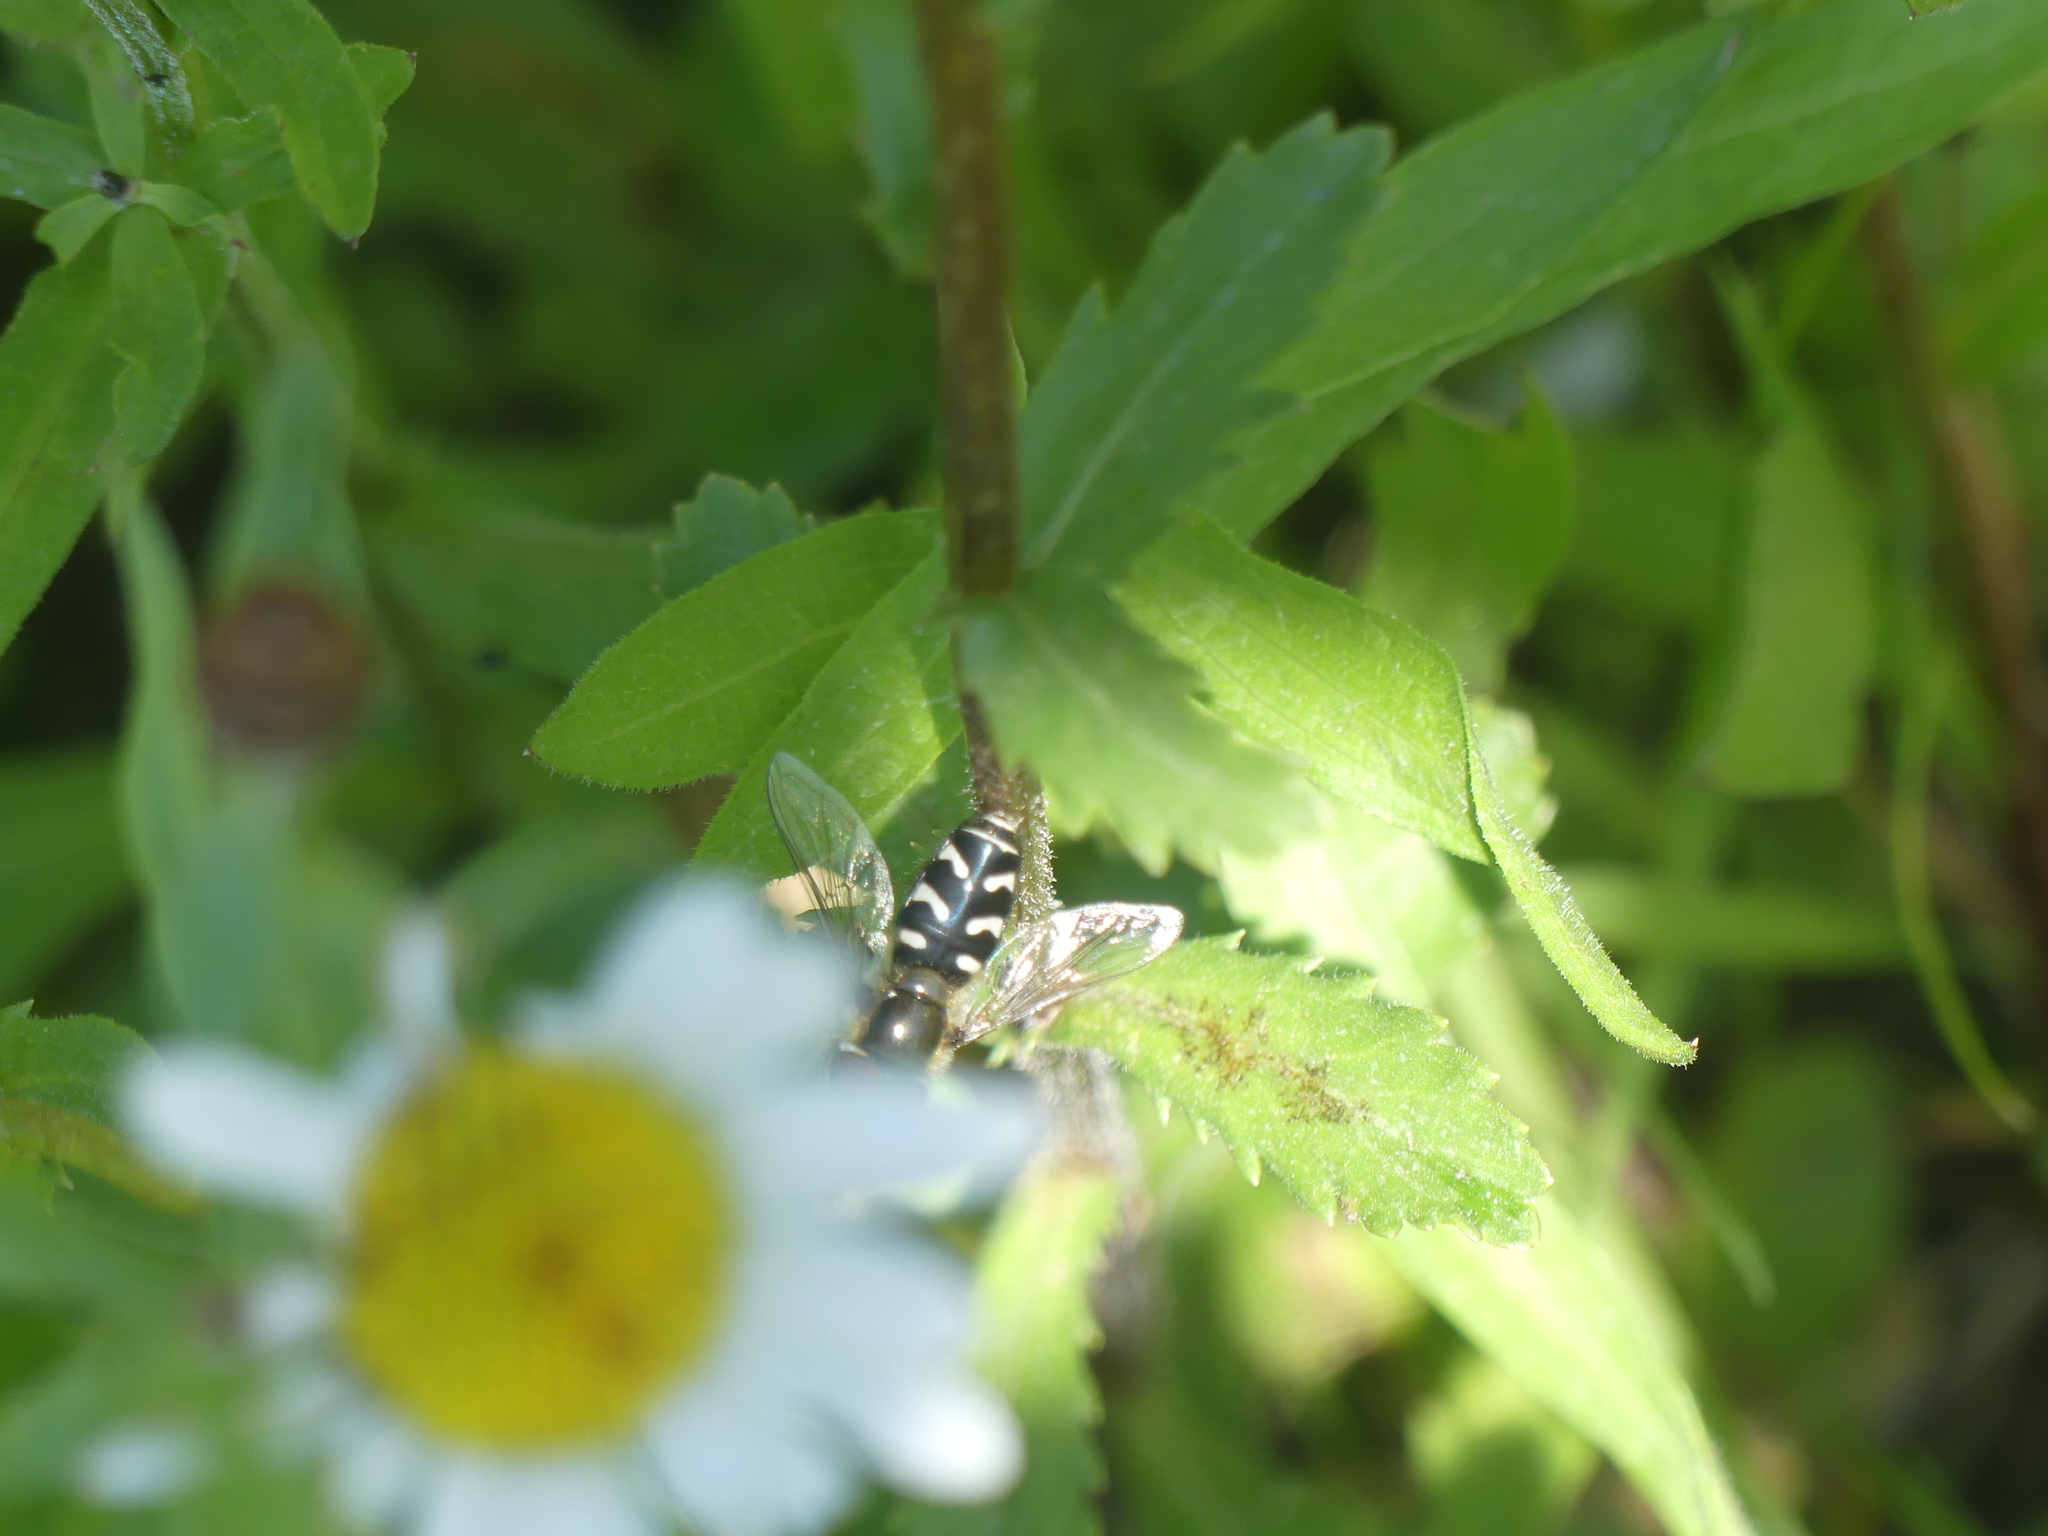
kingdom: Animalia
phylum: Arthropoda
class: Insecta
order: Diptera
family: Syrphidae
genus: Scaeva
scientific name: Scaeva pyrastri
